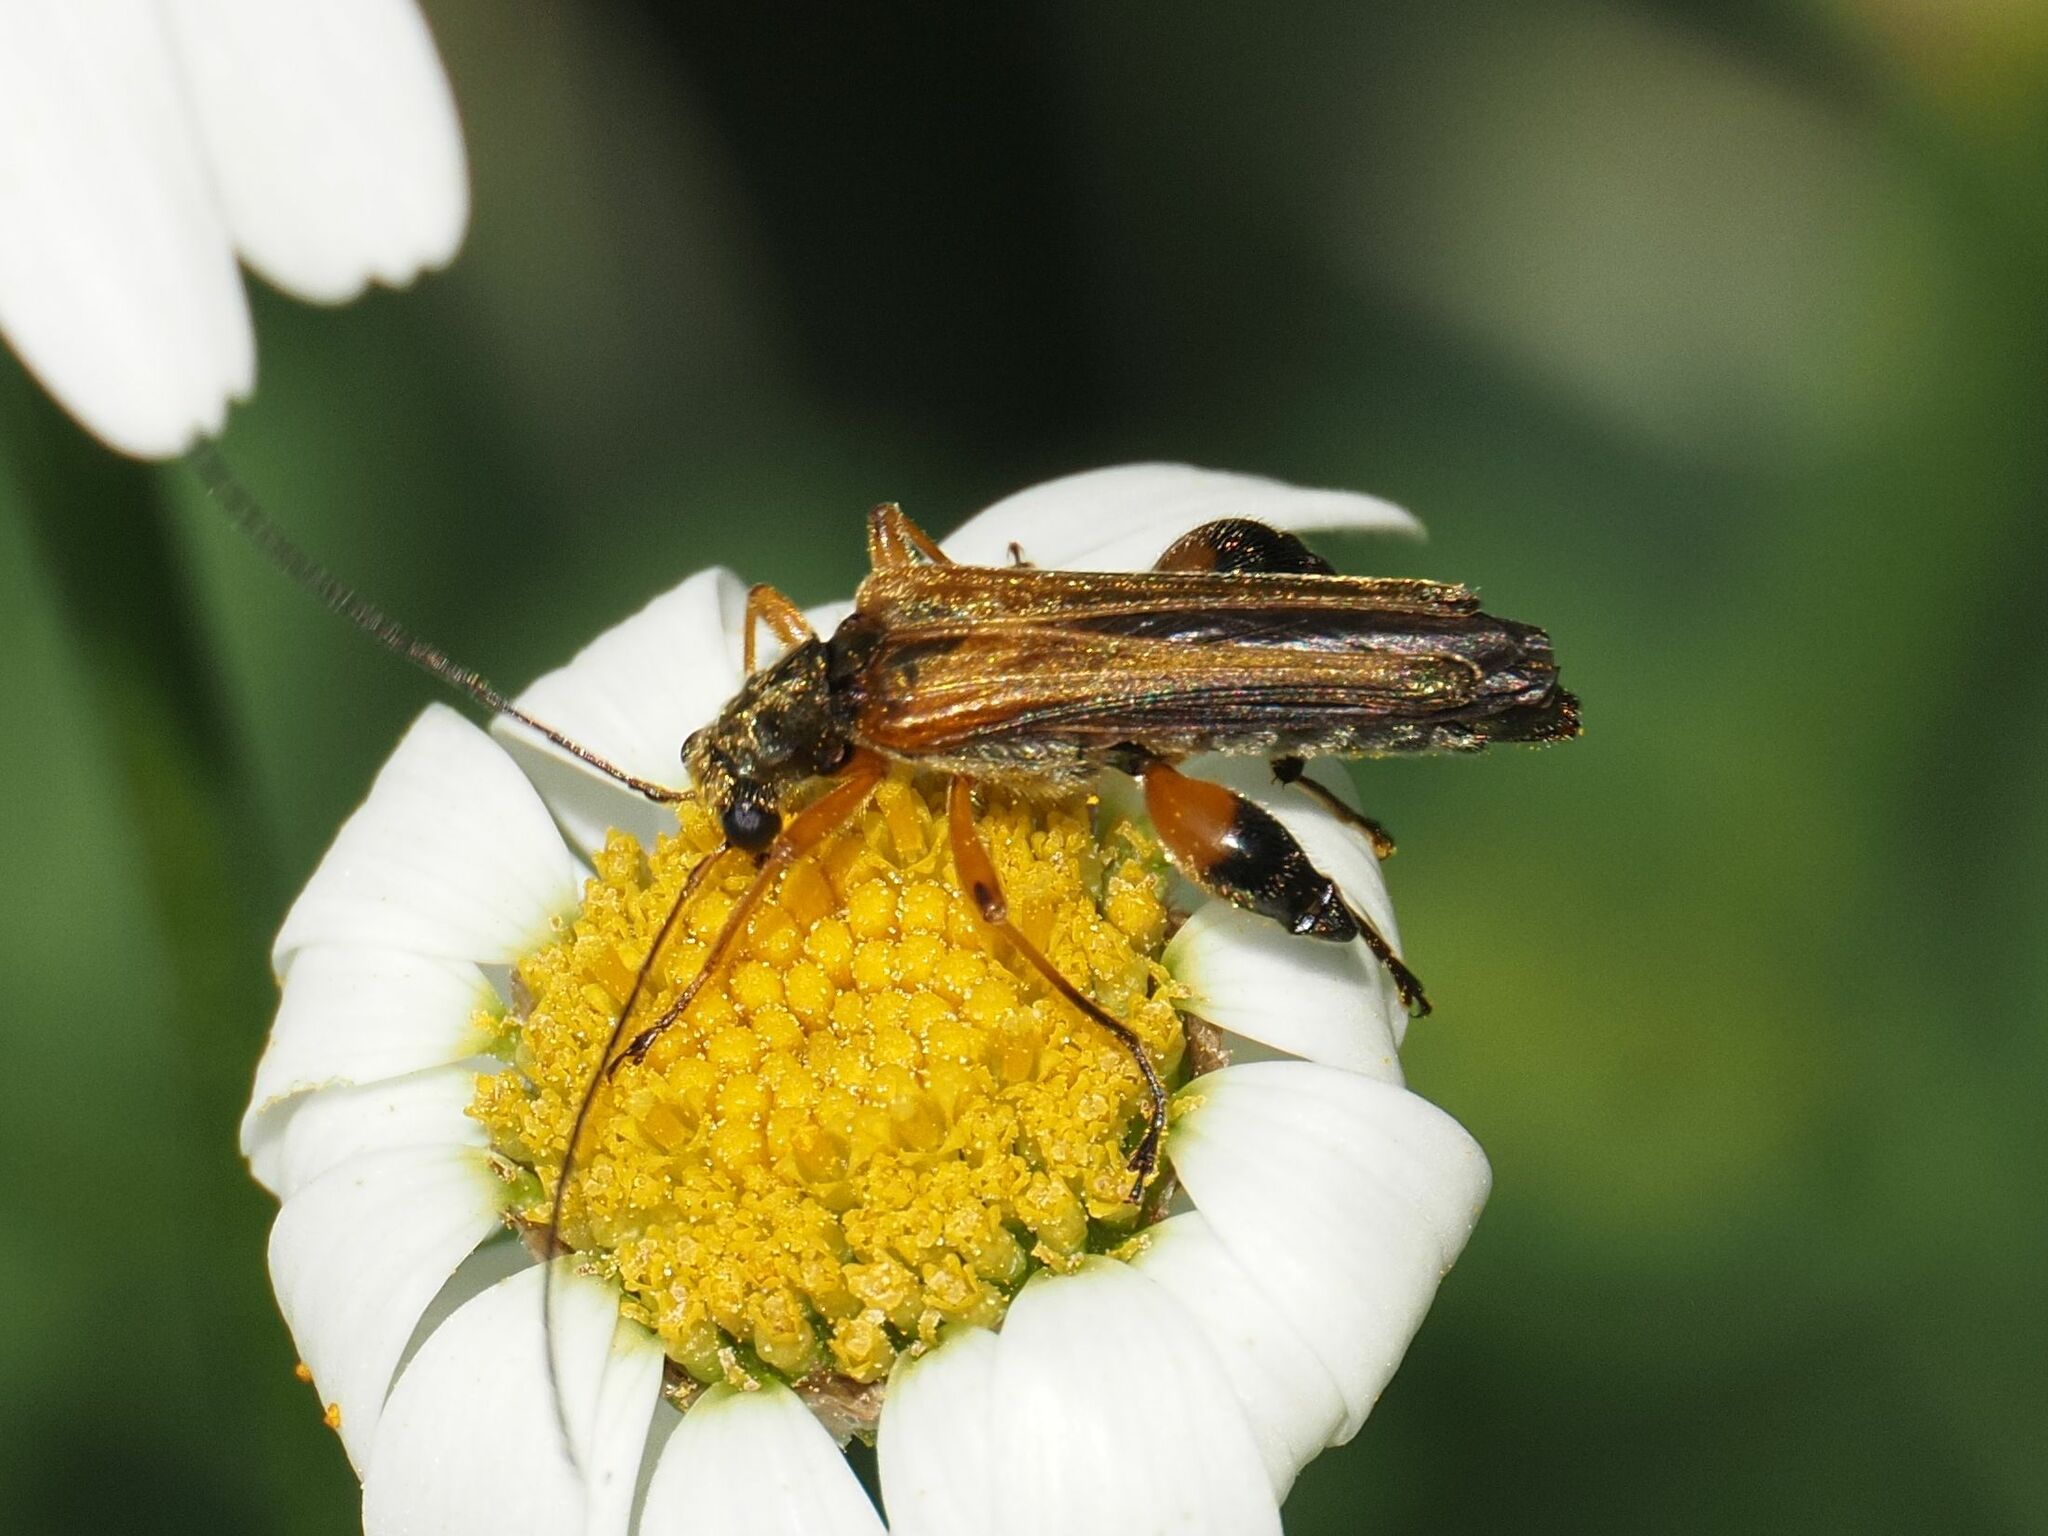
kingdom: Animalia
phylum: Arthropoda
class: Insecta
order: Coleoptera
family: Oedemeridae
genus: Oedemera
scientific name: Oedemera podagrariae
